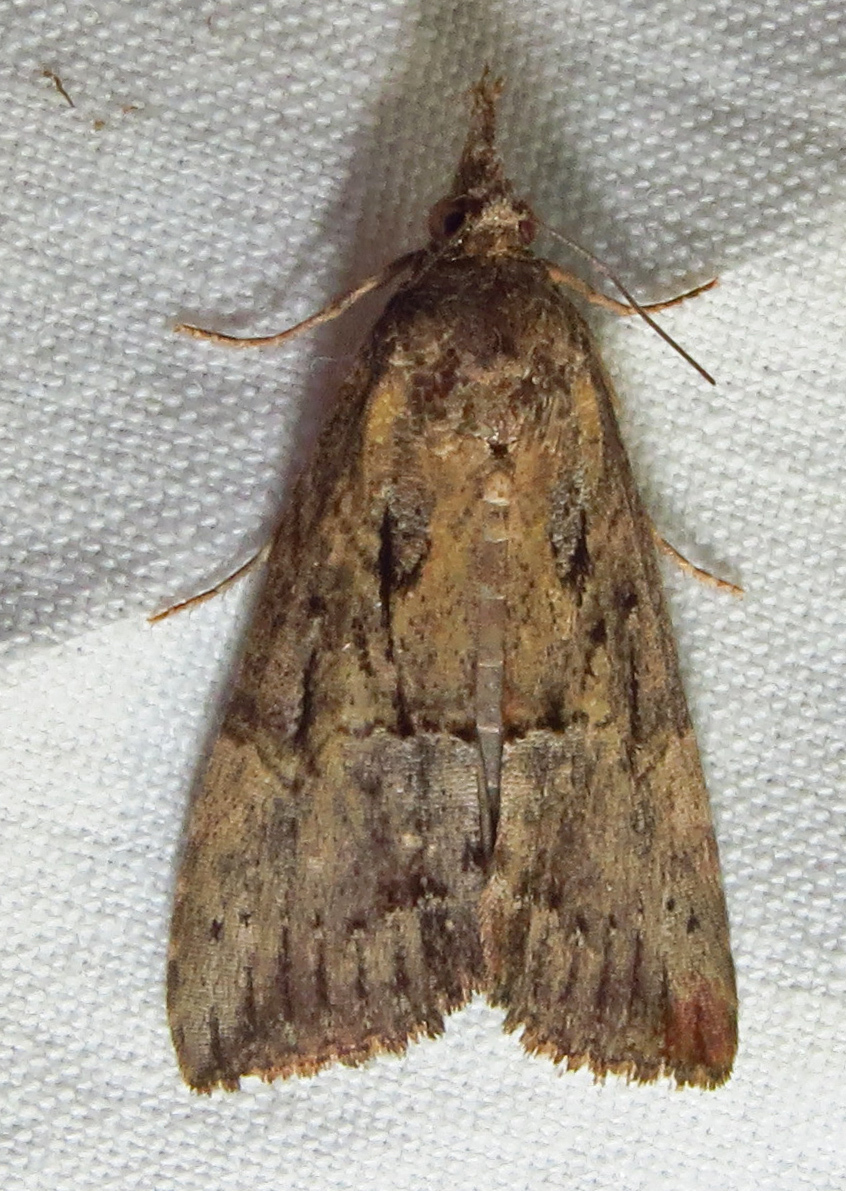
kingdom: Animalia
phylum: Arthropoda
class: Insecta
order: Lepidoptera
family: Erebidae
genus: Hypena
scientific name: Hypena scabra
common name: Green cloverworm
